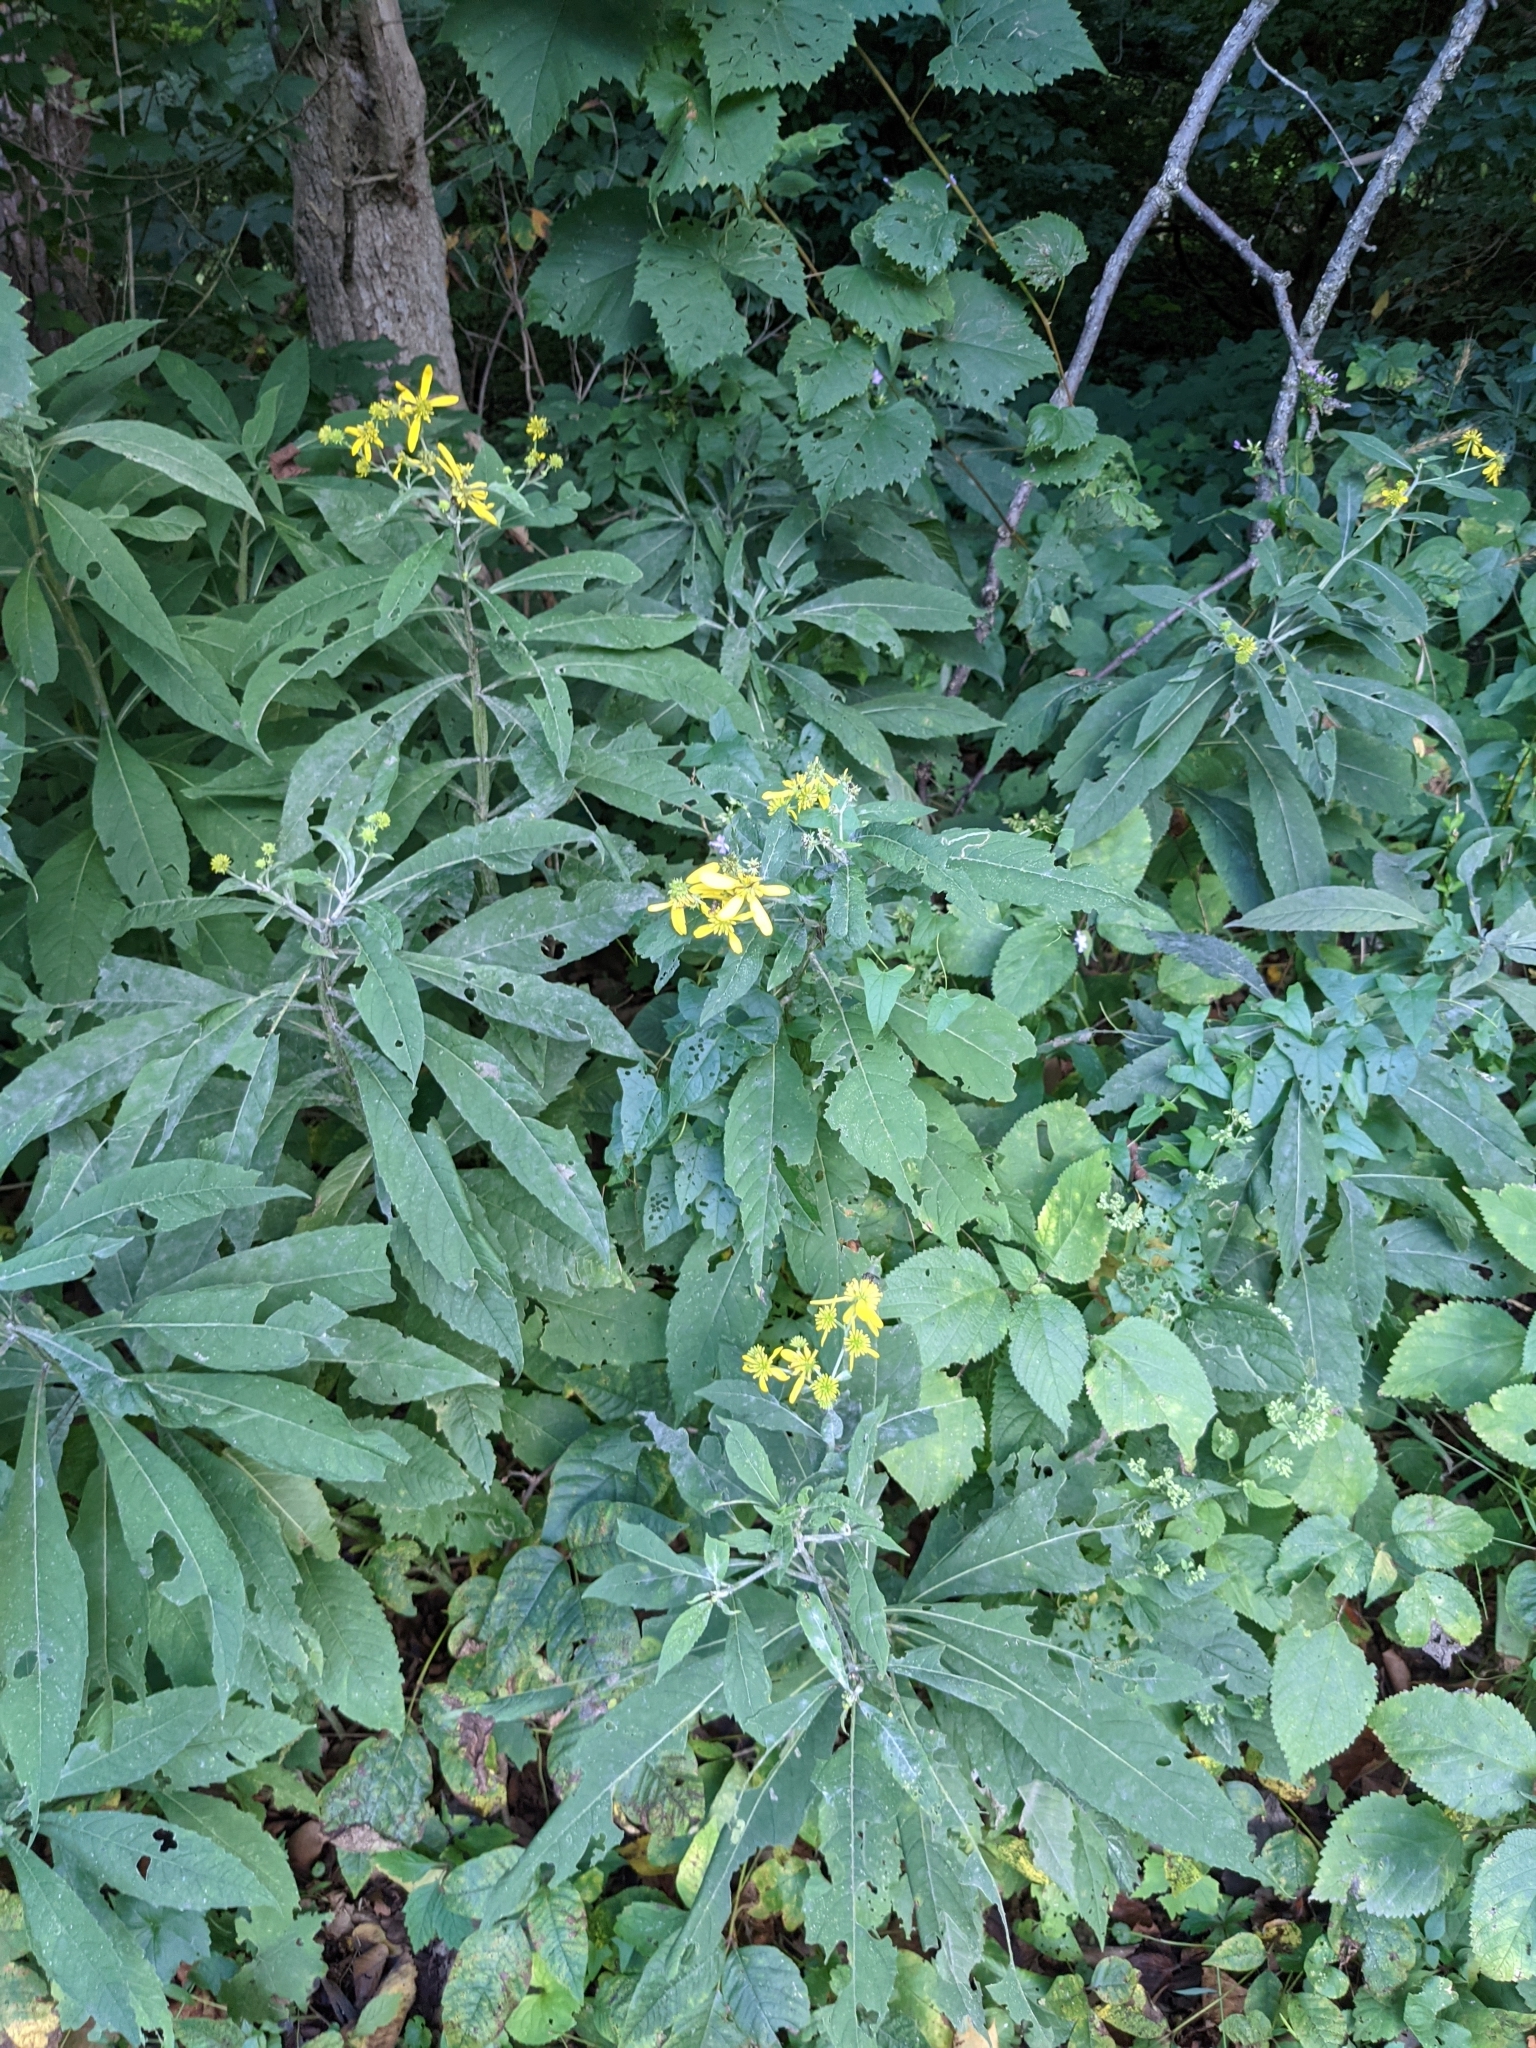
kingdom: Plantae
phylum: Tracheophyta
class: Magnoliopsida
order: Asterales
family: Asteraceae
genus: Verbesina
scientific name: Verbesina alternifolia
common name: Wingstem
